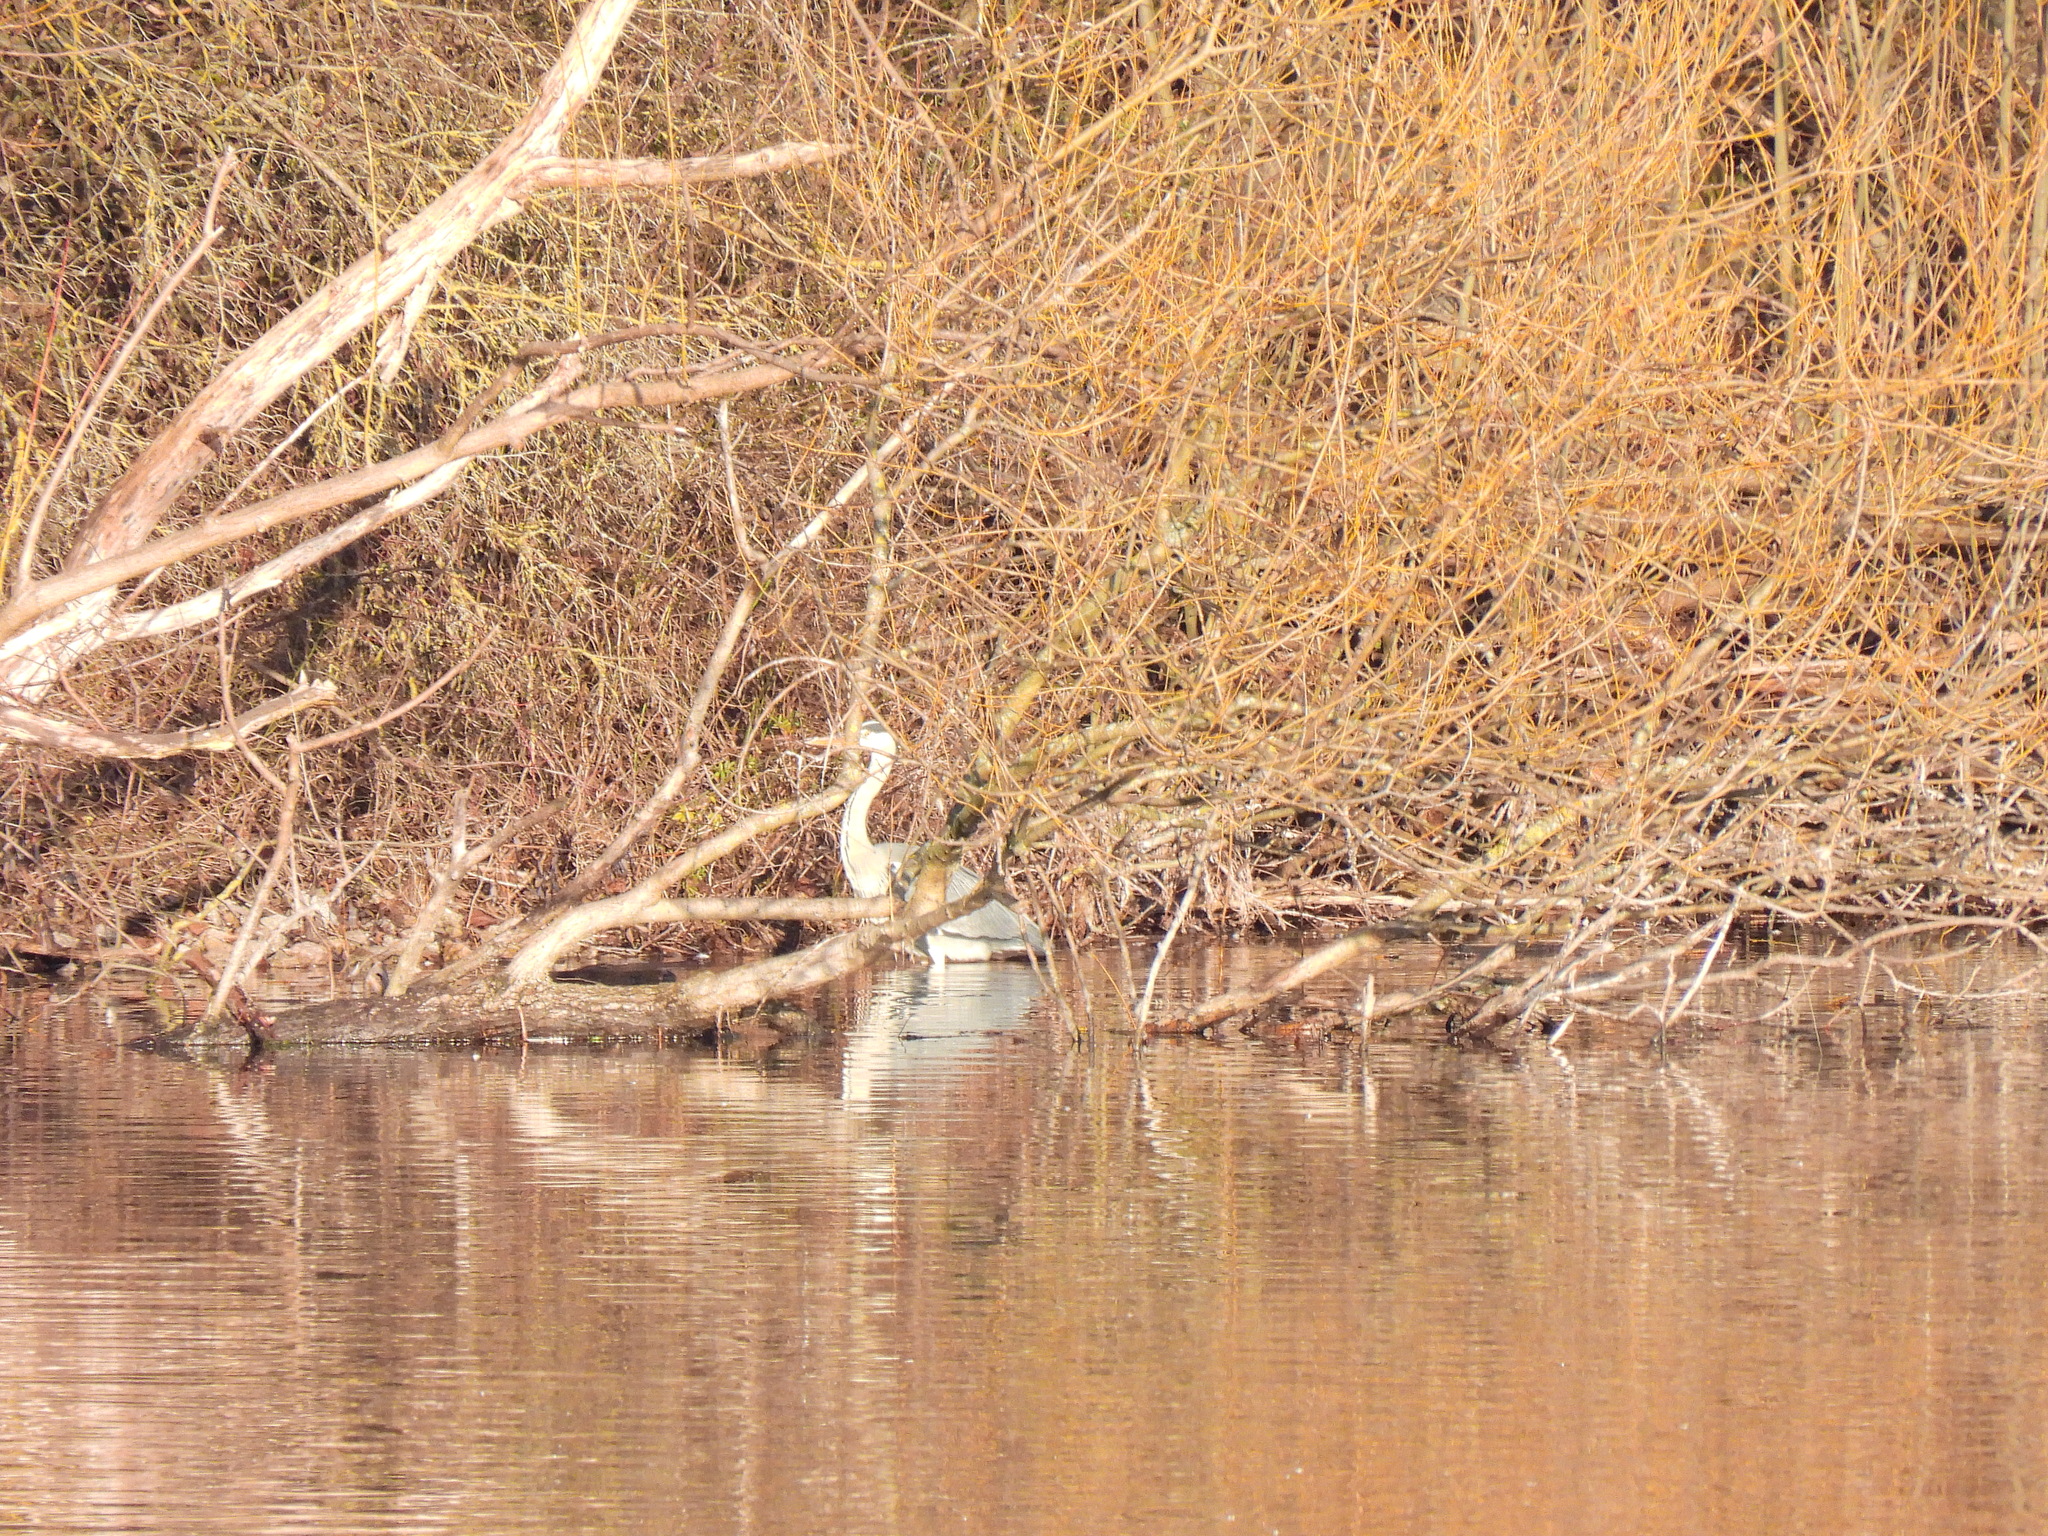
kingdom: Animalia
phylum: Chordata
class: Aves
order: Pelecaniformes
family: Ardeidae
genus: Ardea
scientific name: Ardea cinerea
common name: Grey heron
